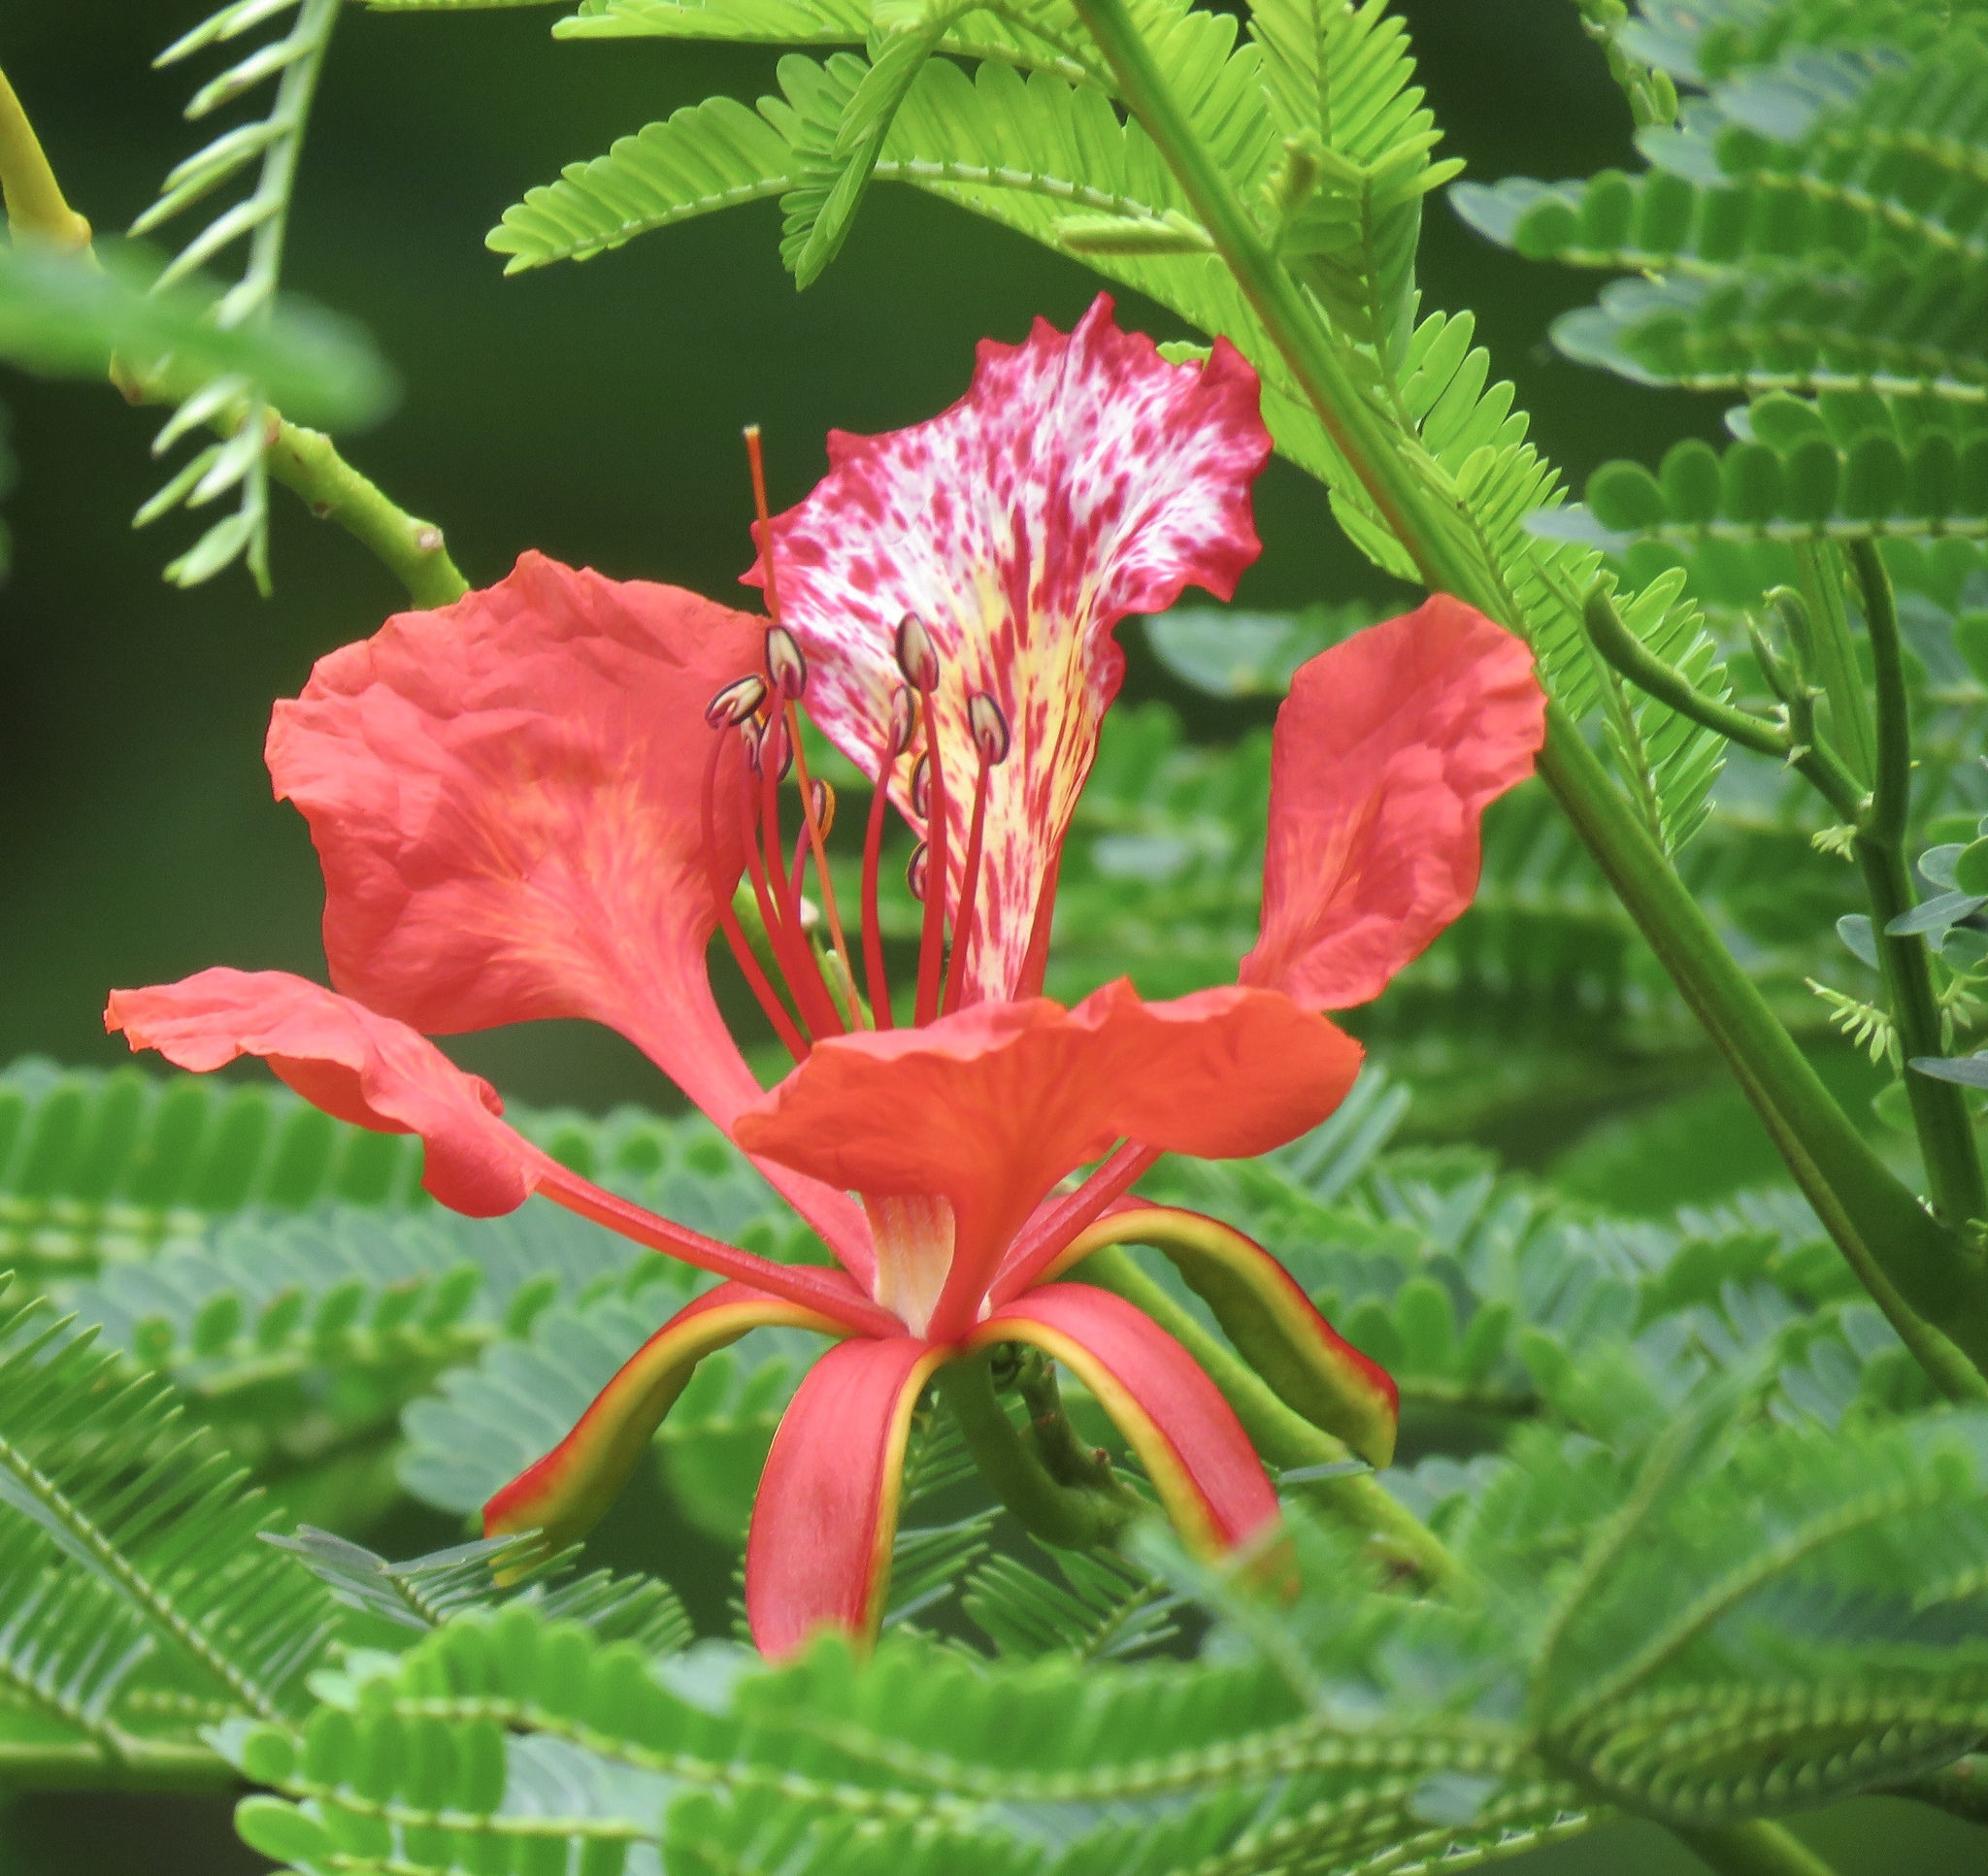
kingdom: Plantae
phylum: Tracheophyta
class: Magnoliopsida
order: Fabales
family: Fabaceae
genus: Delonix
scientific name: Delonix regia
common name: Royal poinciana
